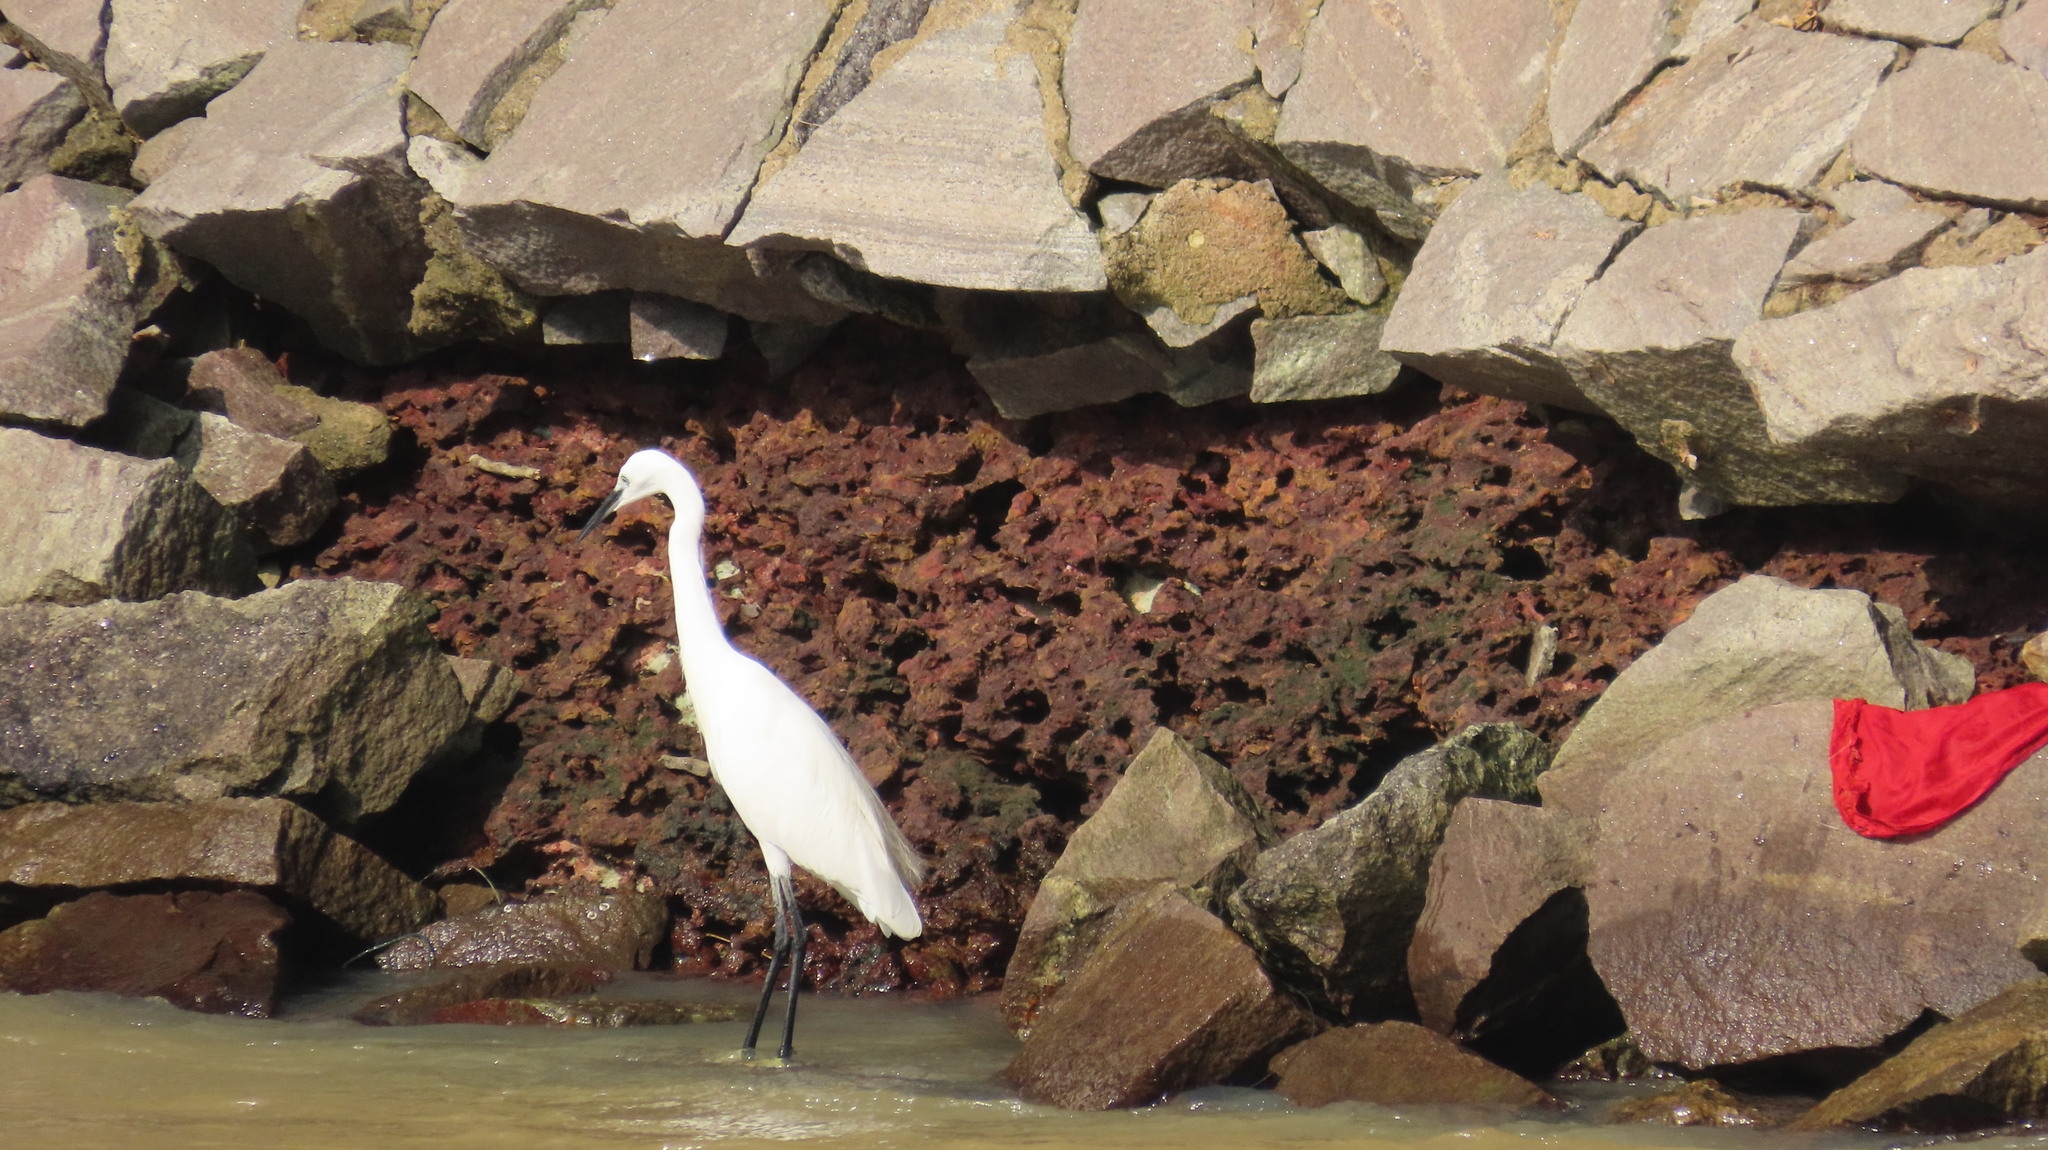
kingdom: Animalia
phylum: Chordata
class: Aves
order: Pelecaniformes
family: Ardeidae
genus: Egretta
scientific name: Egretta garzetta
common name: Little egret
